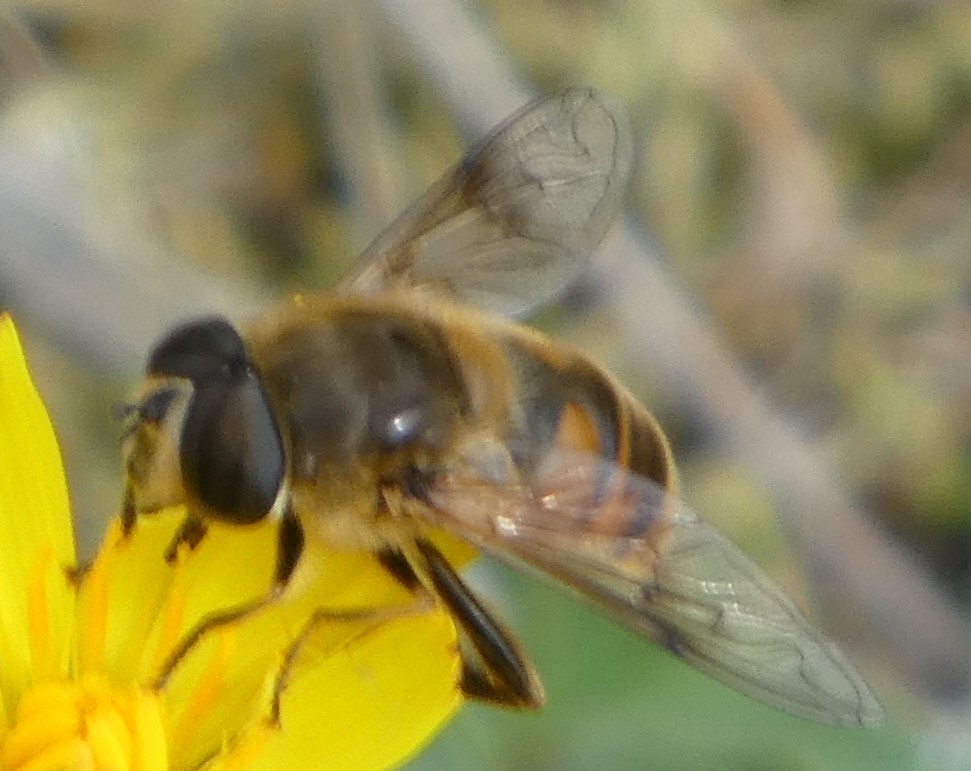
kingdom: Animalia
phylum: Arthropoda
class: Insecta
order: Diptera
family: Syrphidae
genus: Eristalis
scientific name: Eristalis tenax
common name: Drone fly
